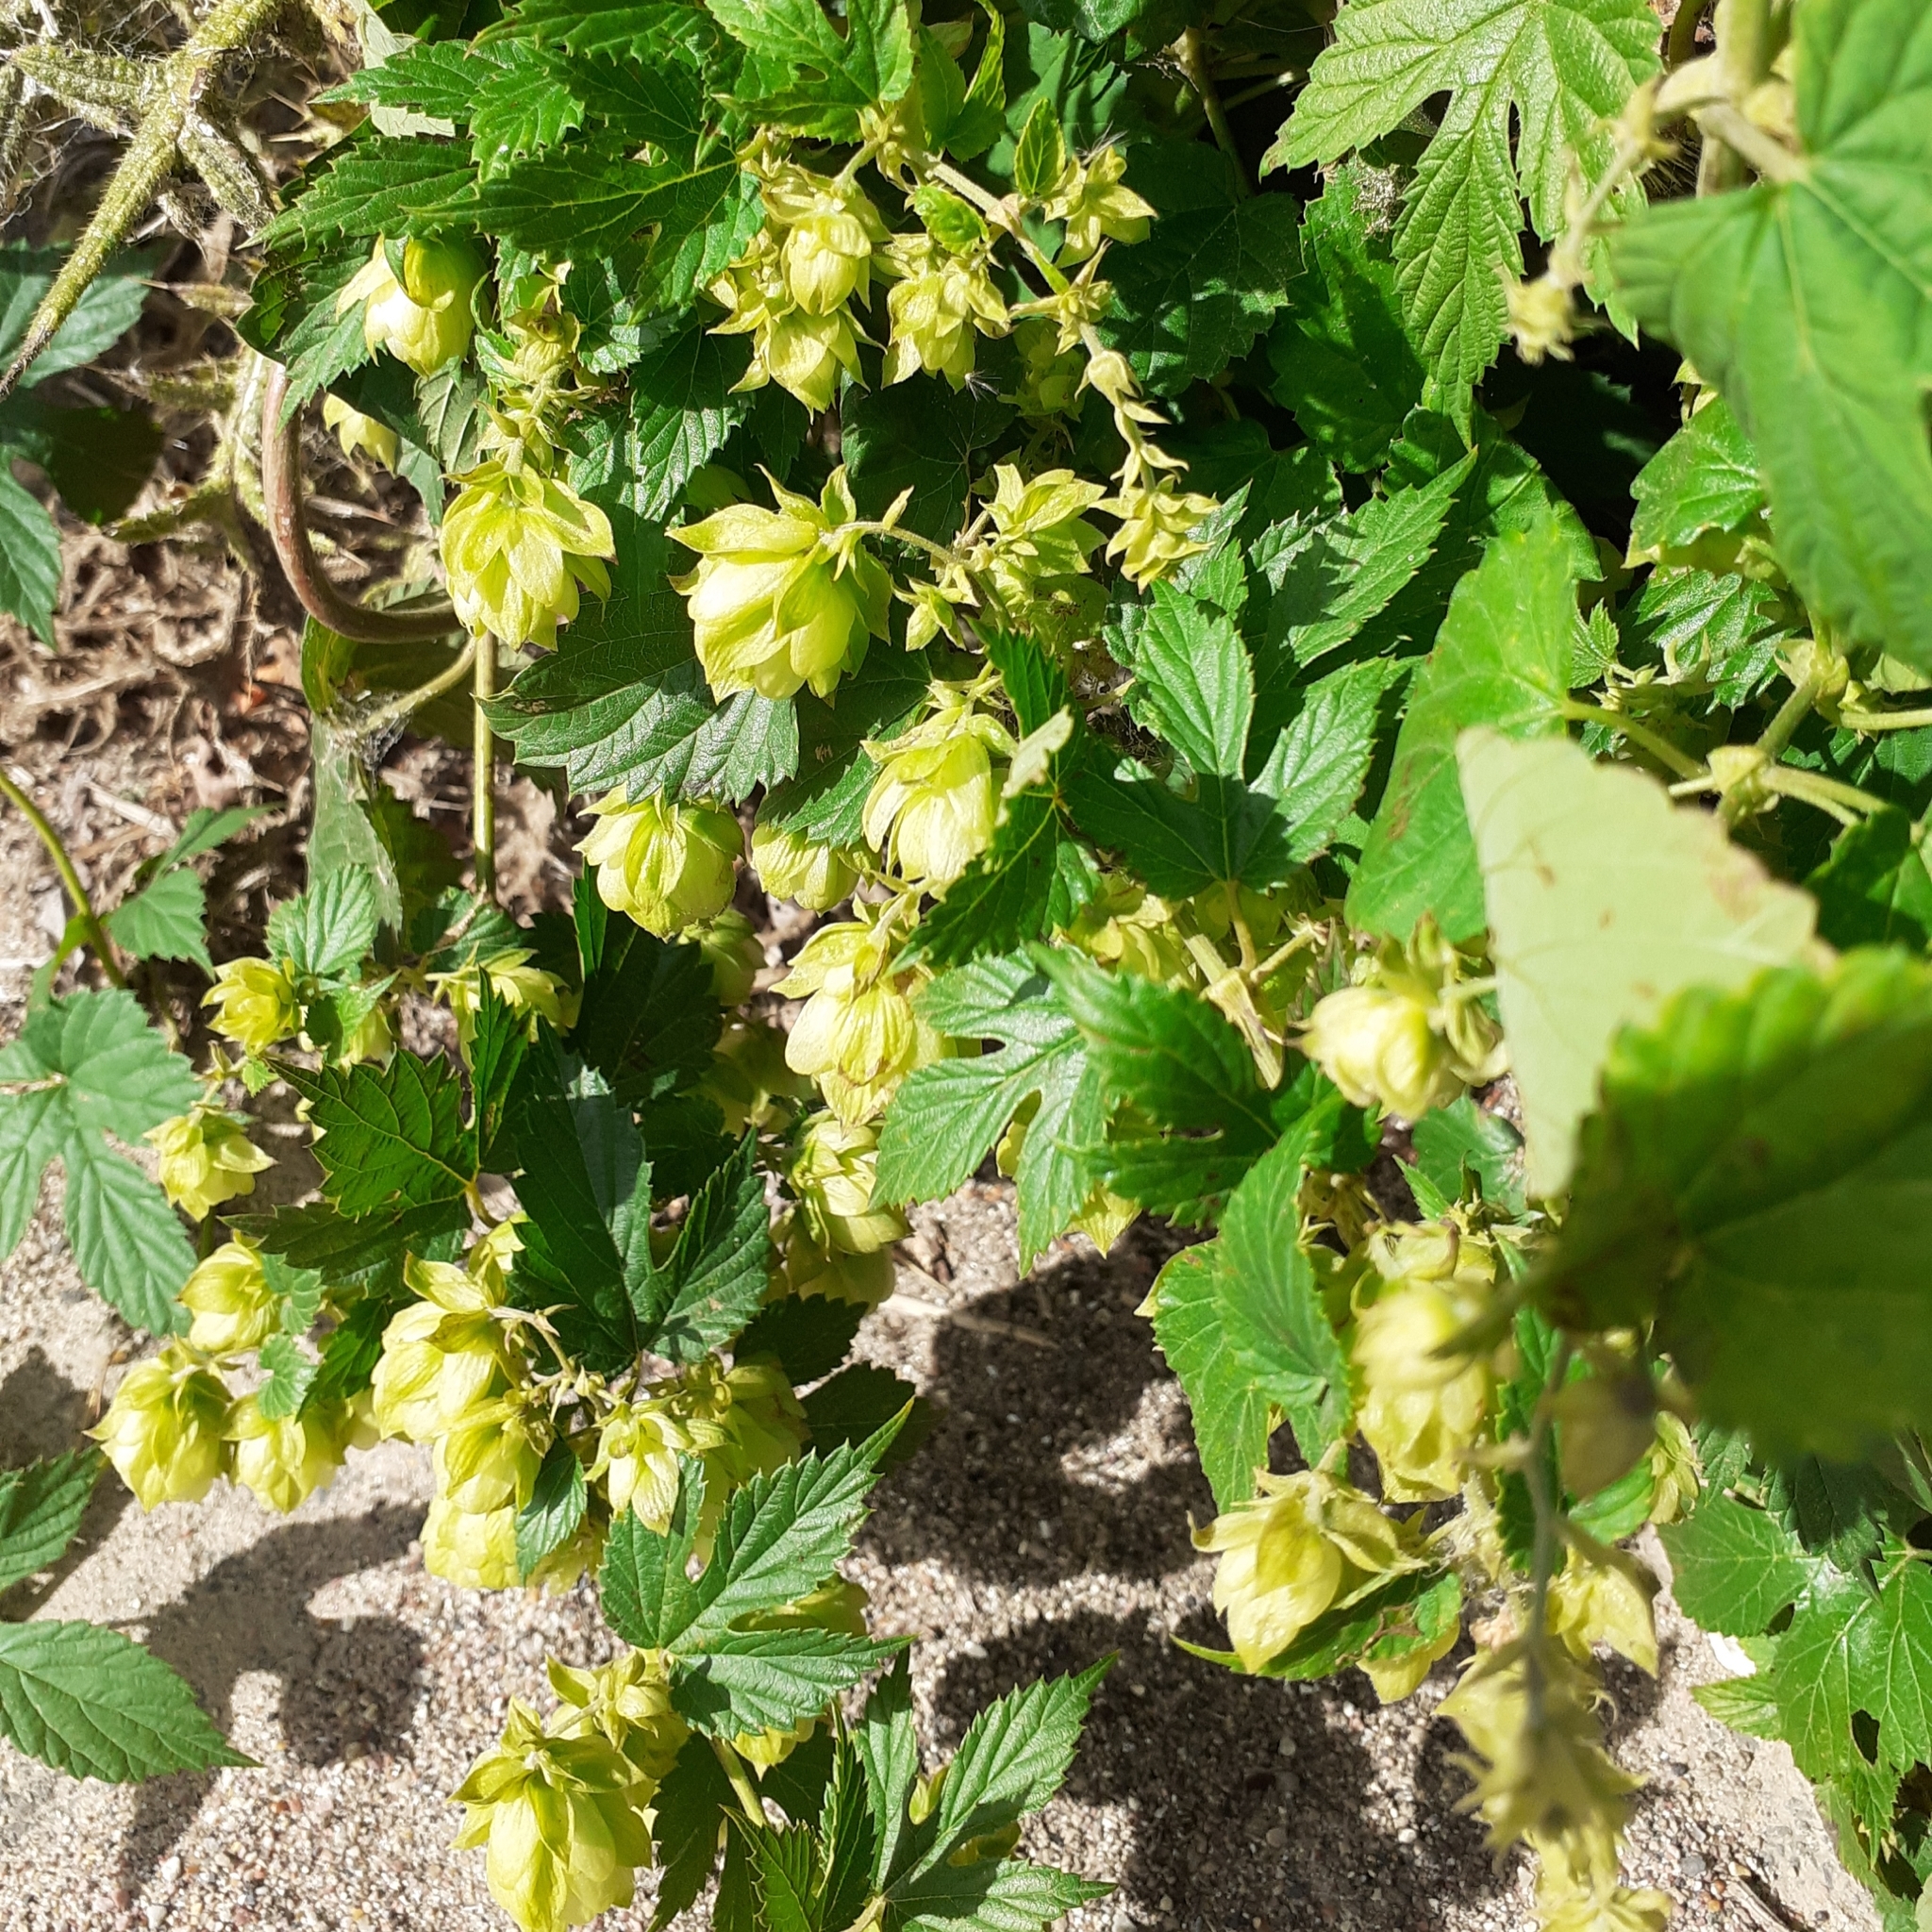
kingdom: Plantae
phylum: Tracheophyta
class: Magnoliopsida
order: Rosales
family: Cannabaceae
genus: Humulus
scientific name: Humulus lupulus
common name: Hop
